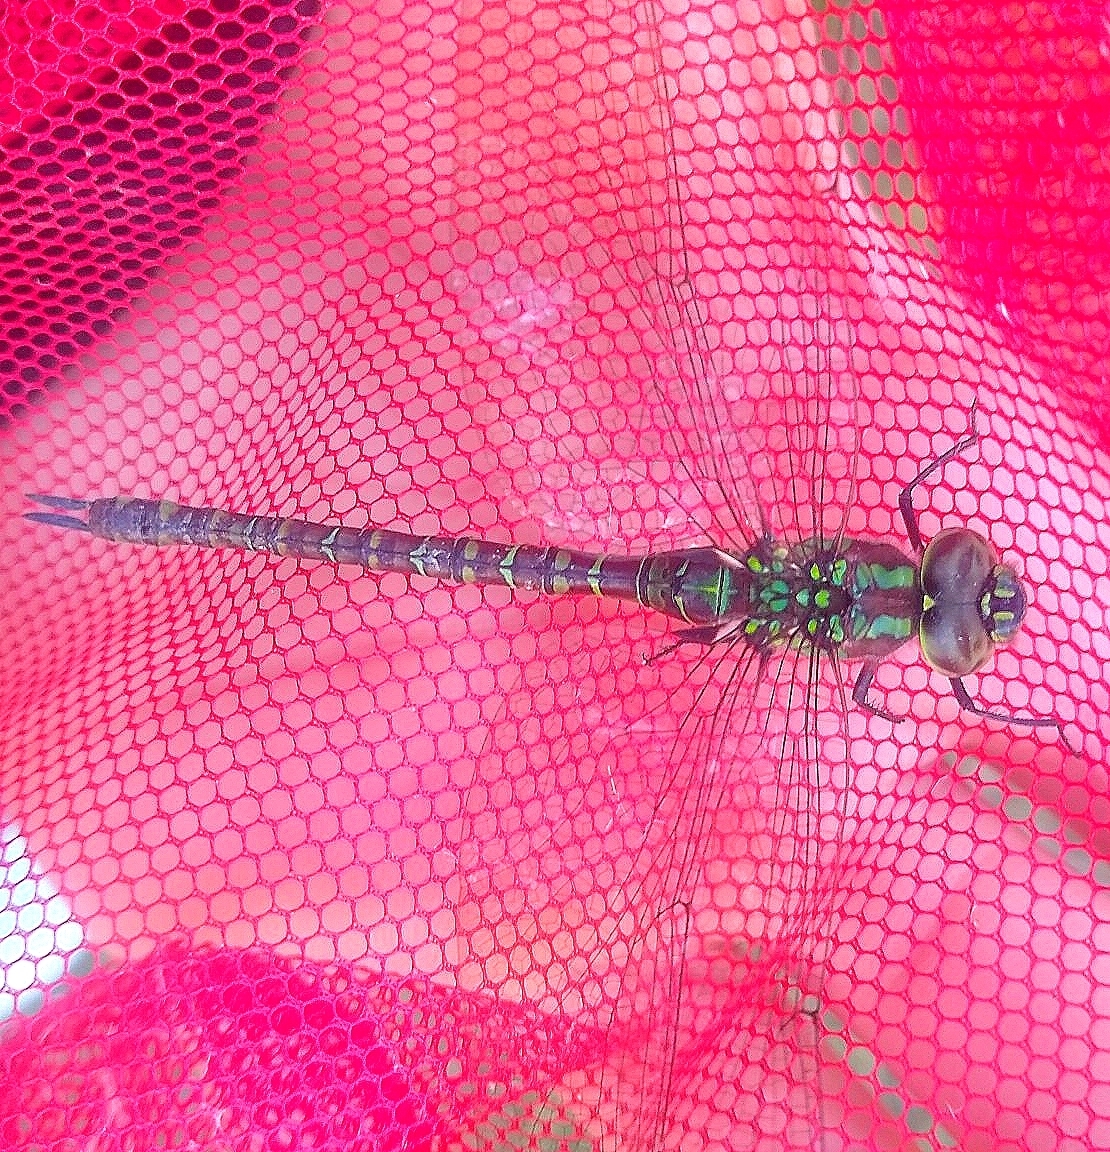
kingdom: Animalia
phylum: Arthropoda
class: Insecta
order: Odonata
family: Aeshnidae
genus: Rhionaeschna
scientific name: Rhionaeschna planaltica
